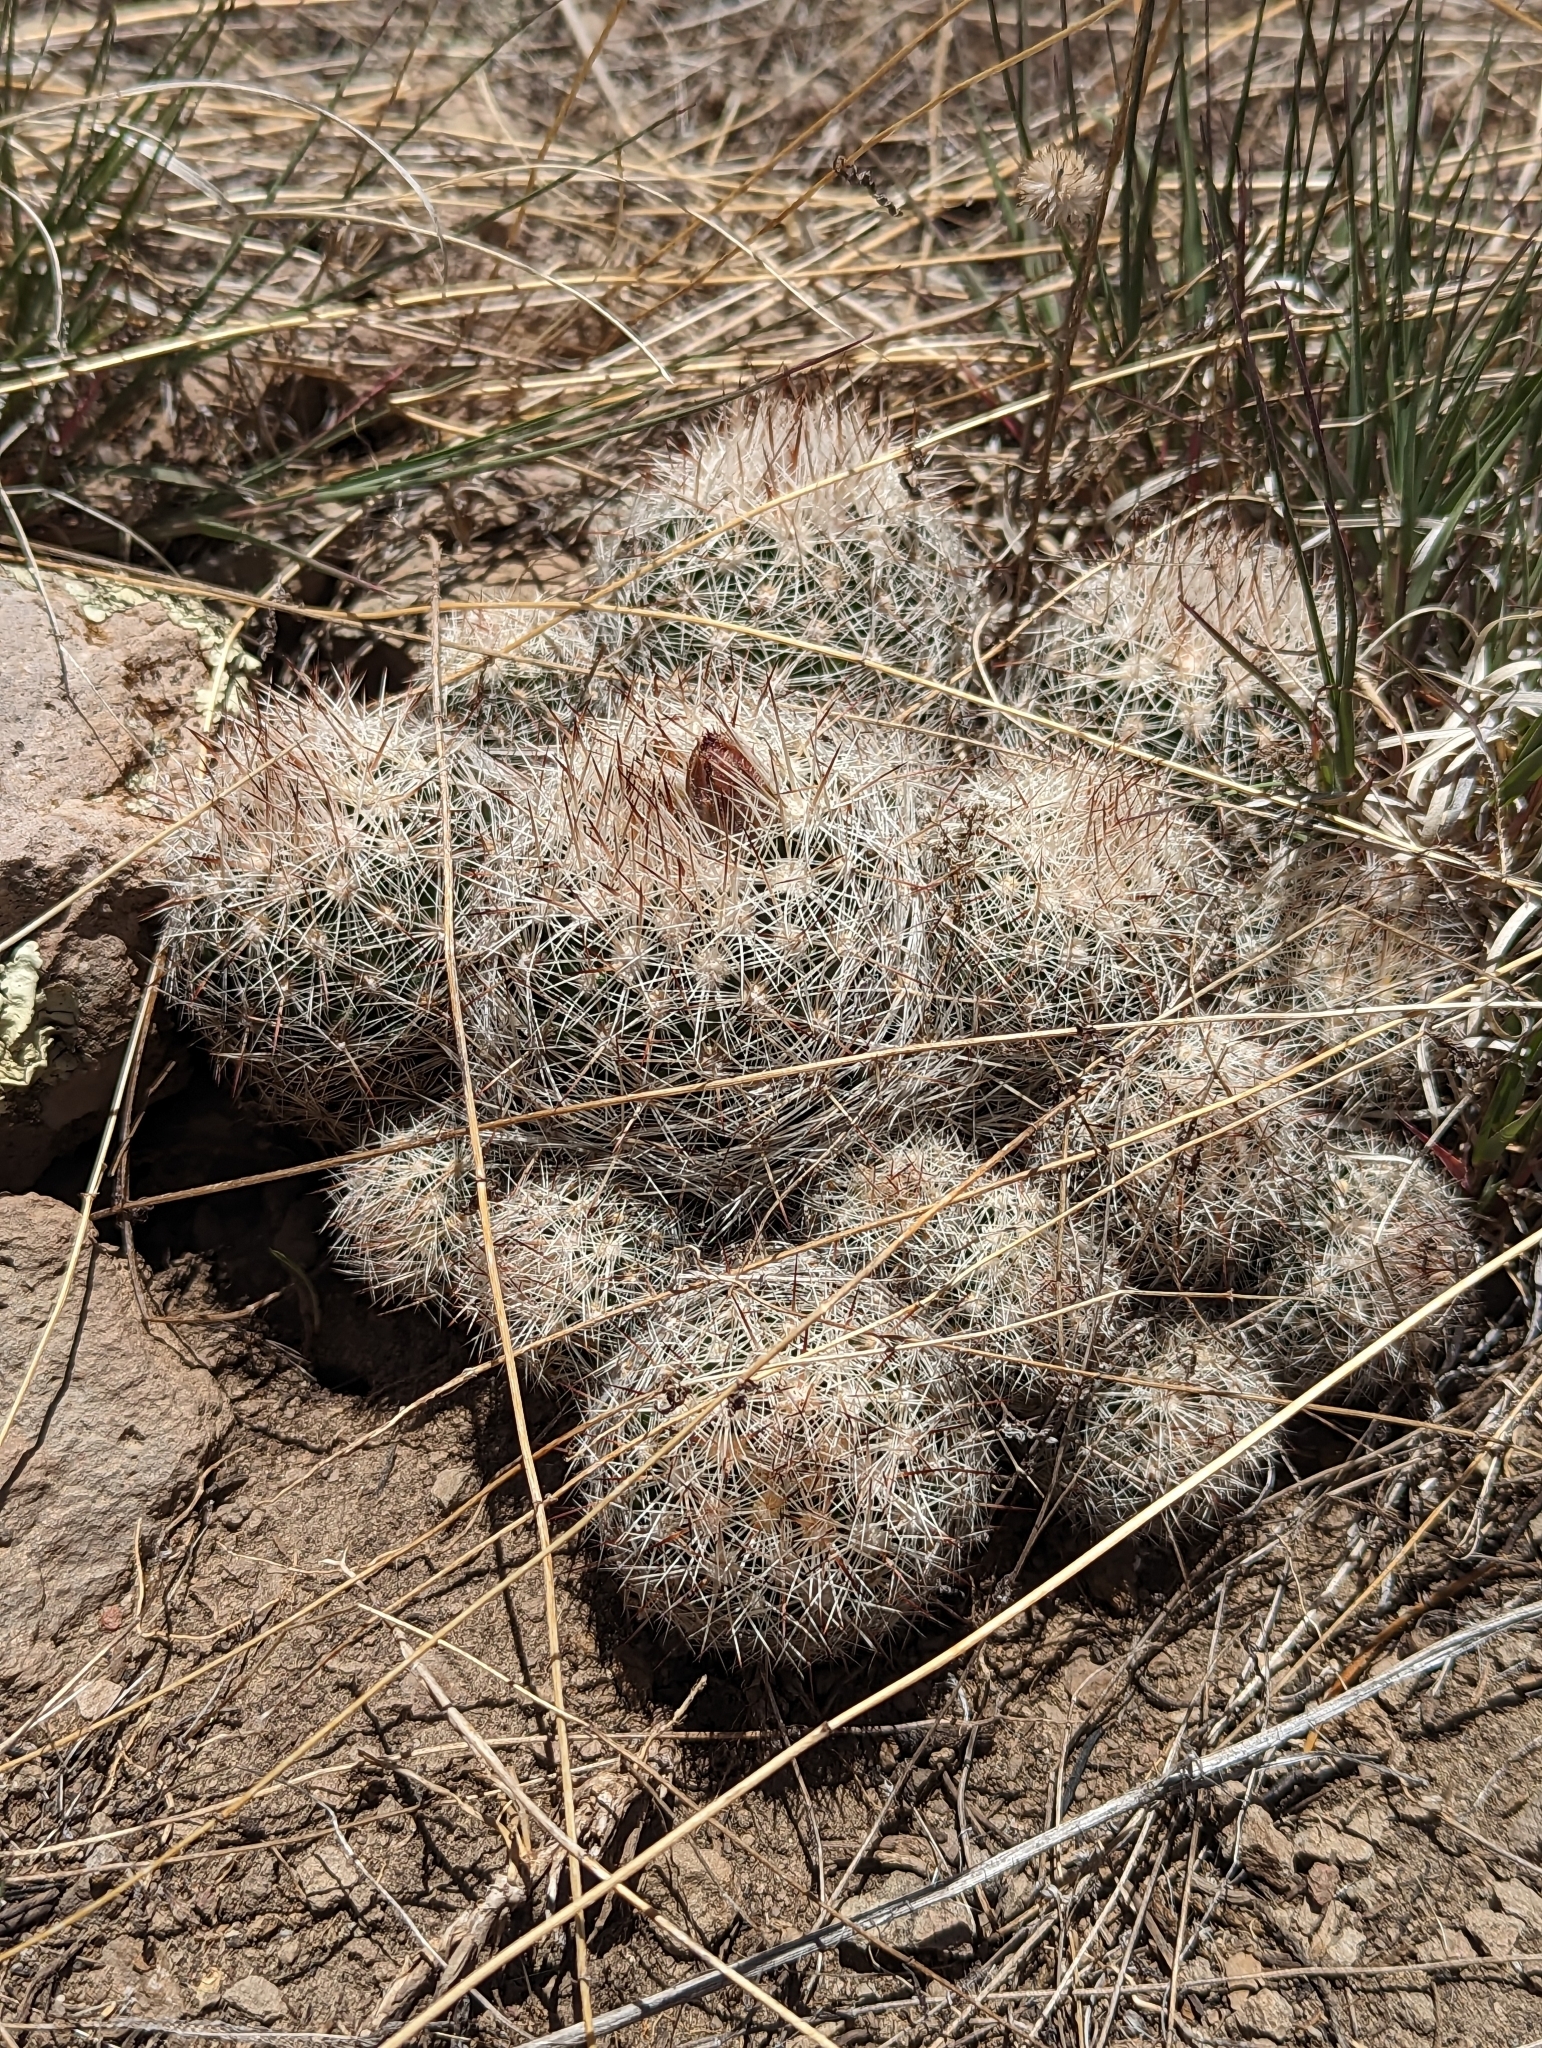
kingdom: Plantae
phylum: Tracheophyta
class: Magnoliopsida
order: Caryophyllales
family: Cactaceae
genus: Pelecyphora
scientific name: Pelecyphora vivipara
